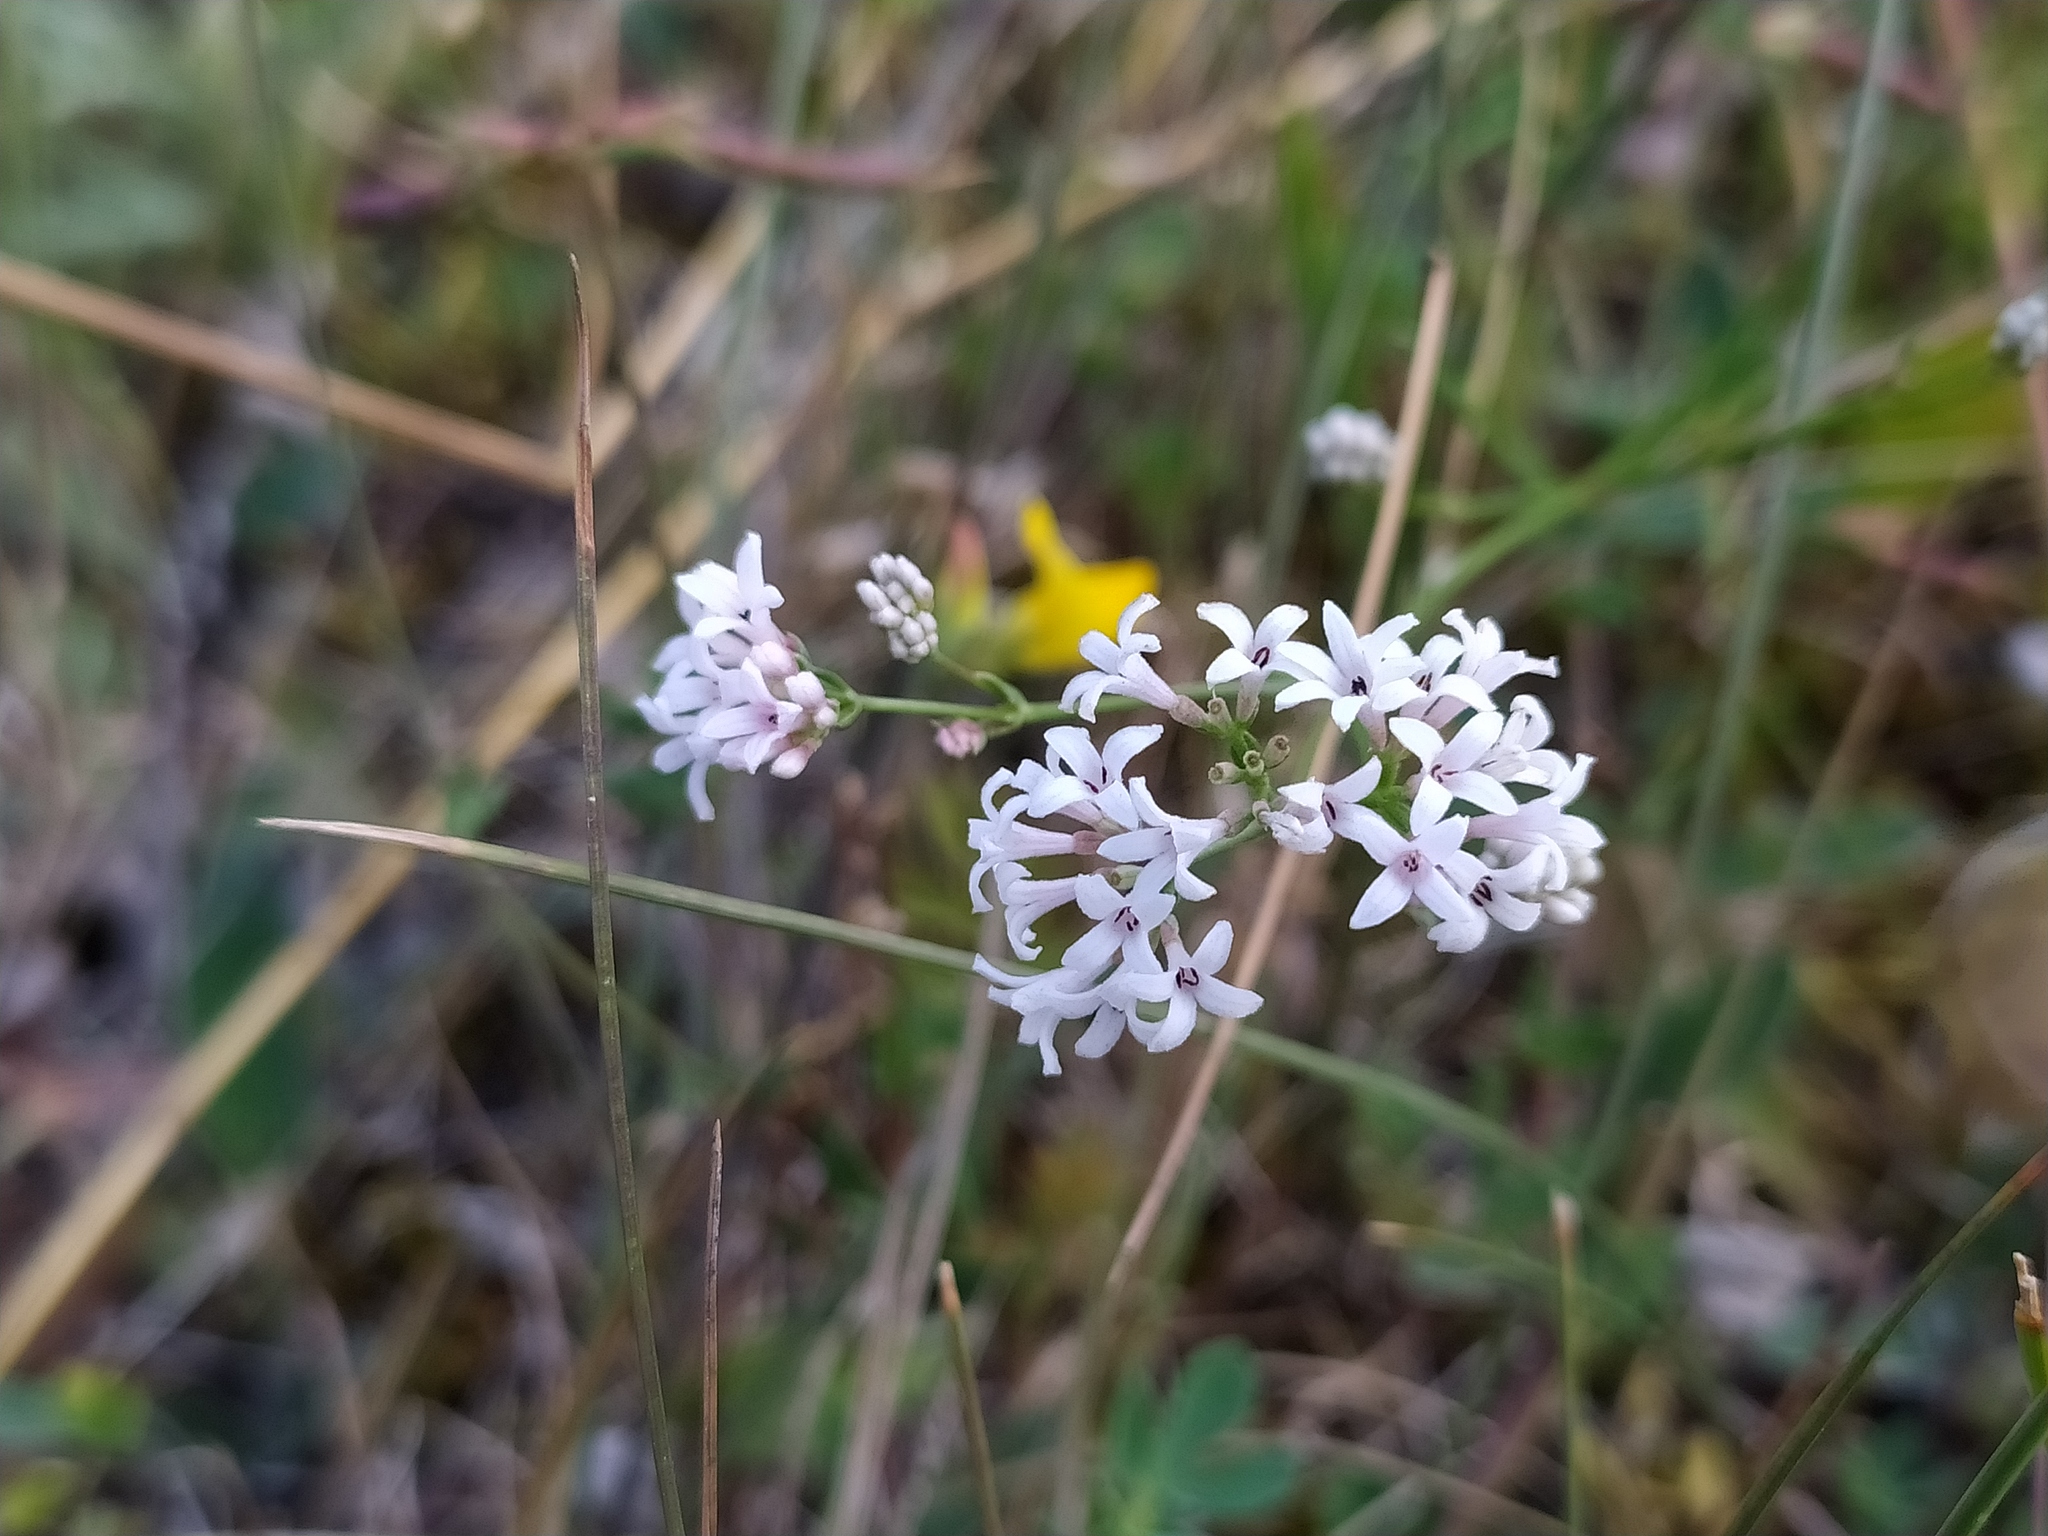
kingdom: Plantae
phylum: Tracheophyta
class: Magnoliopsida
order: Gentianales
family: Rubiaceae
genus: Cynanchica
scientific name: Cynanchica pyrenaica
